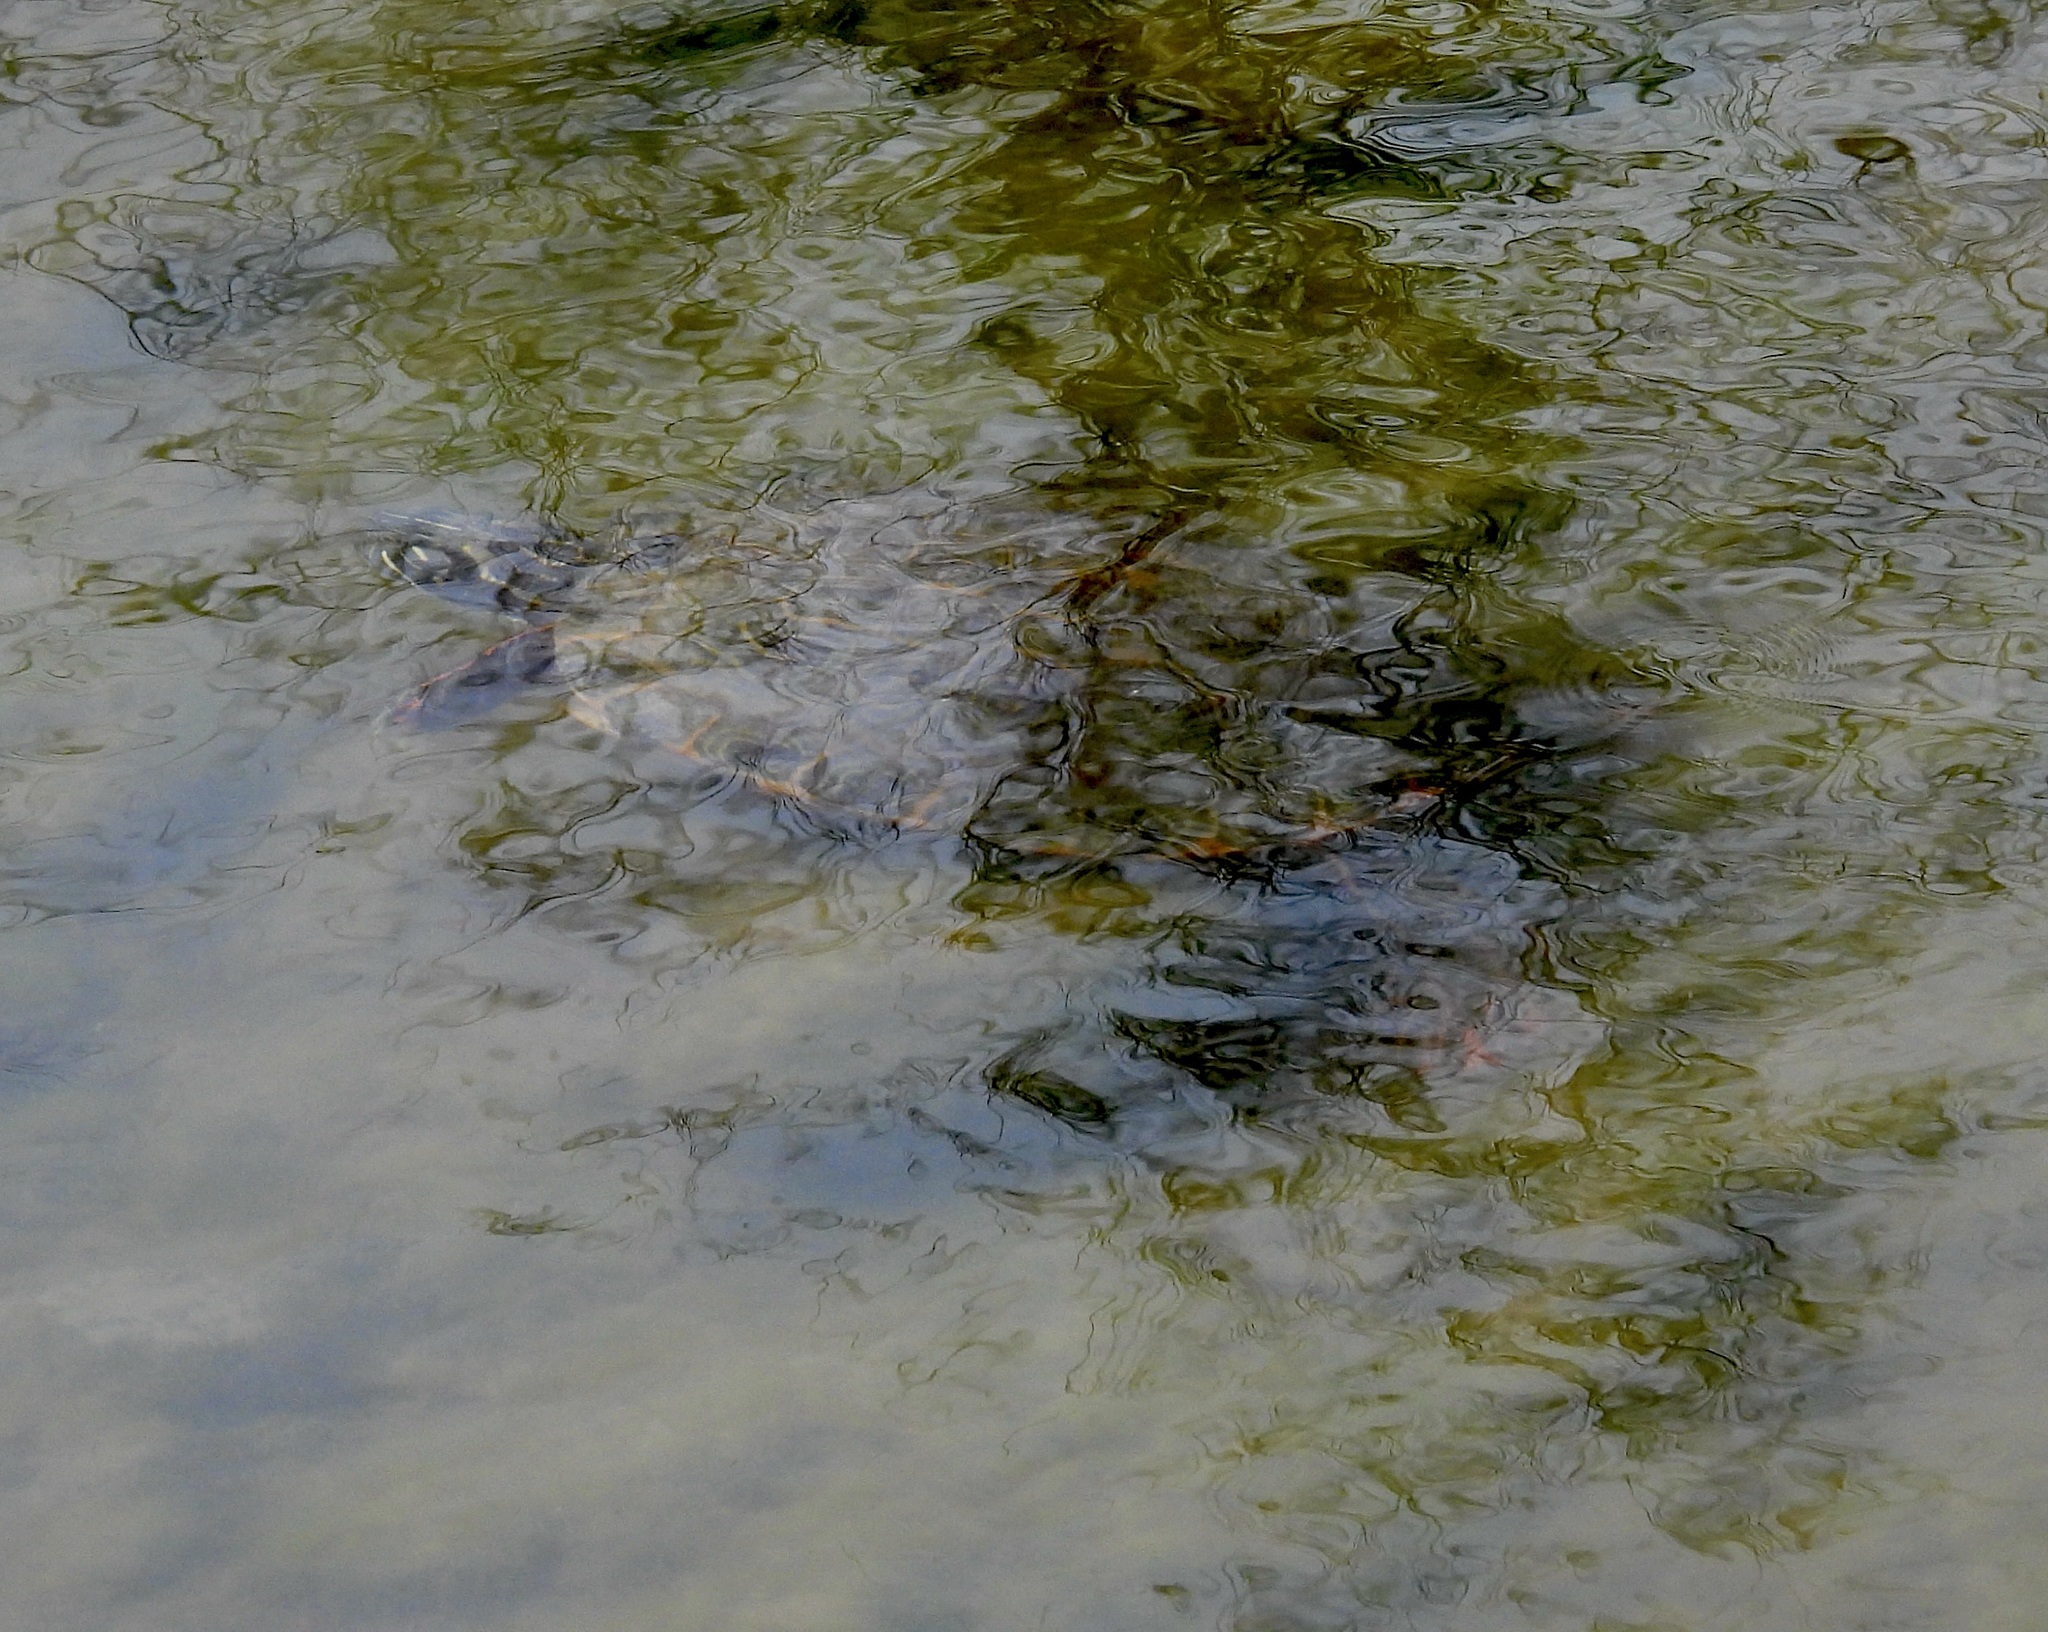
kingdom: Animalia
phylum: Chordata
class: Testudines
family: Emydidae
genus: Pseudemys
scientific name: Pseudemys gorzugi
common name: Rio grande cooter
